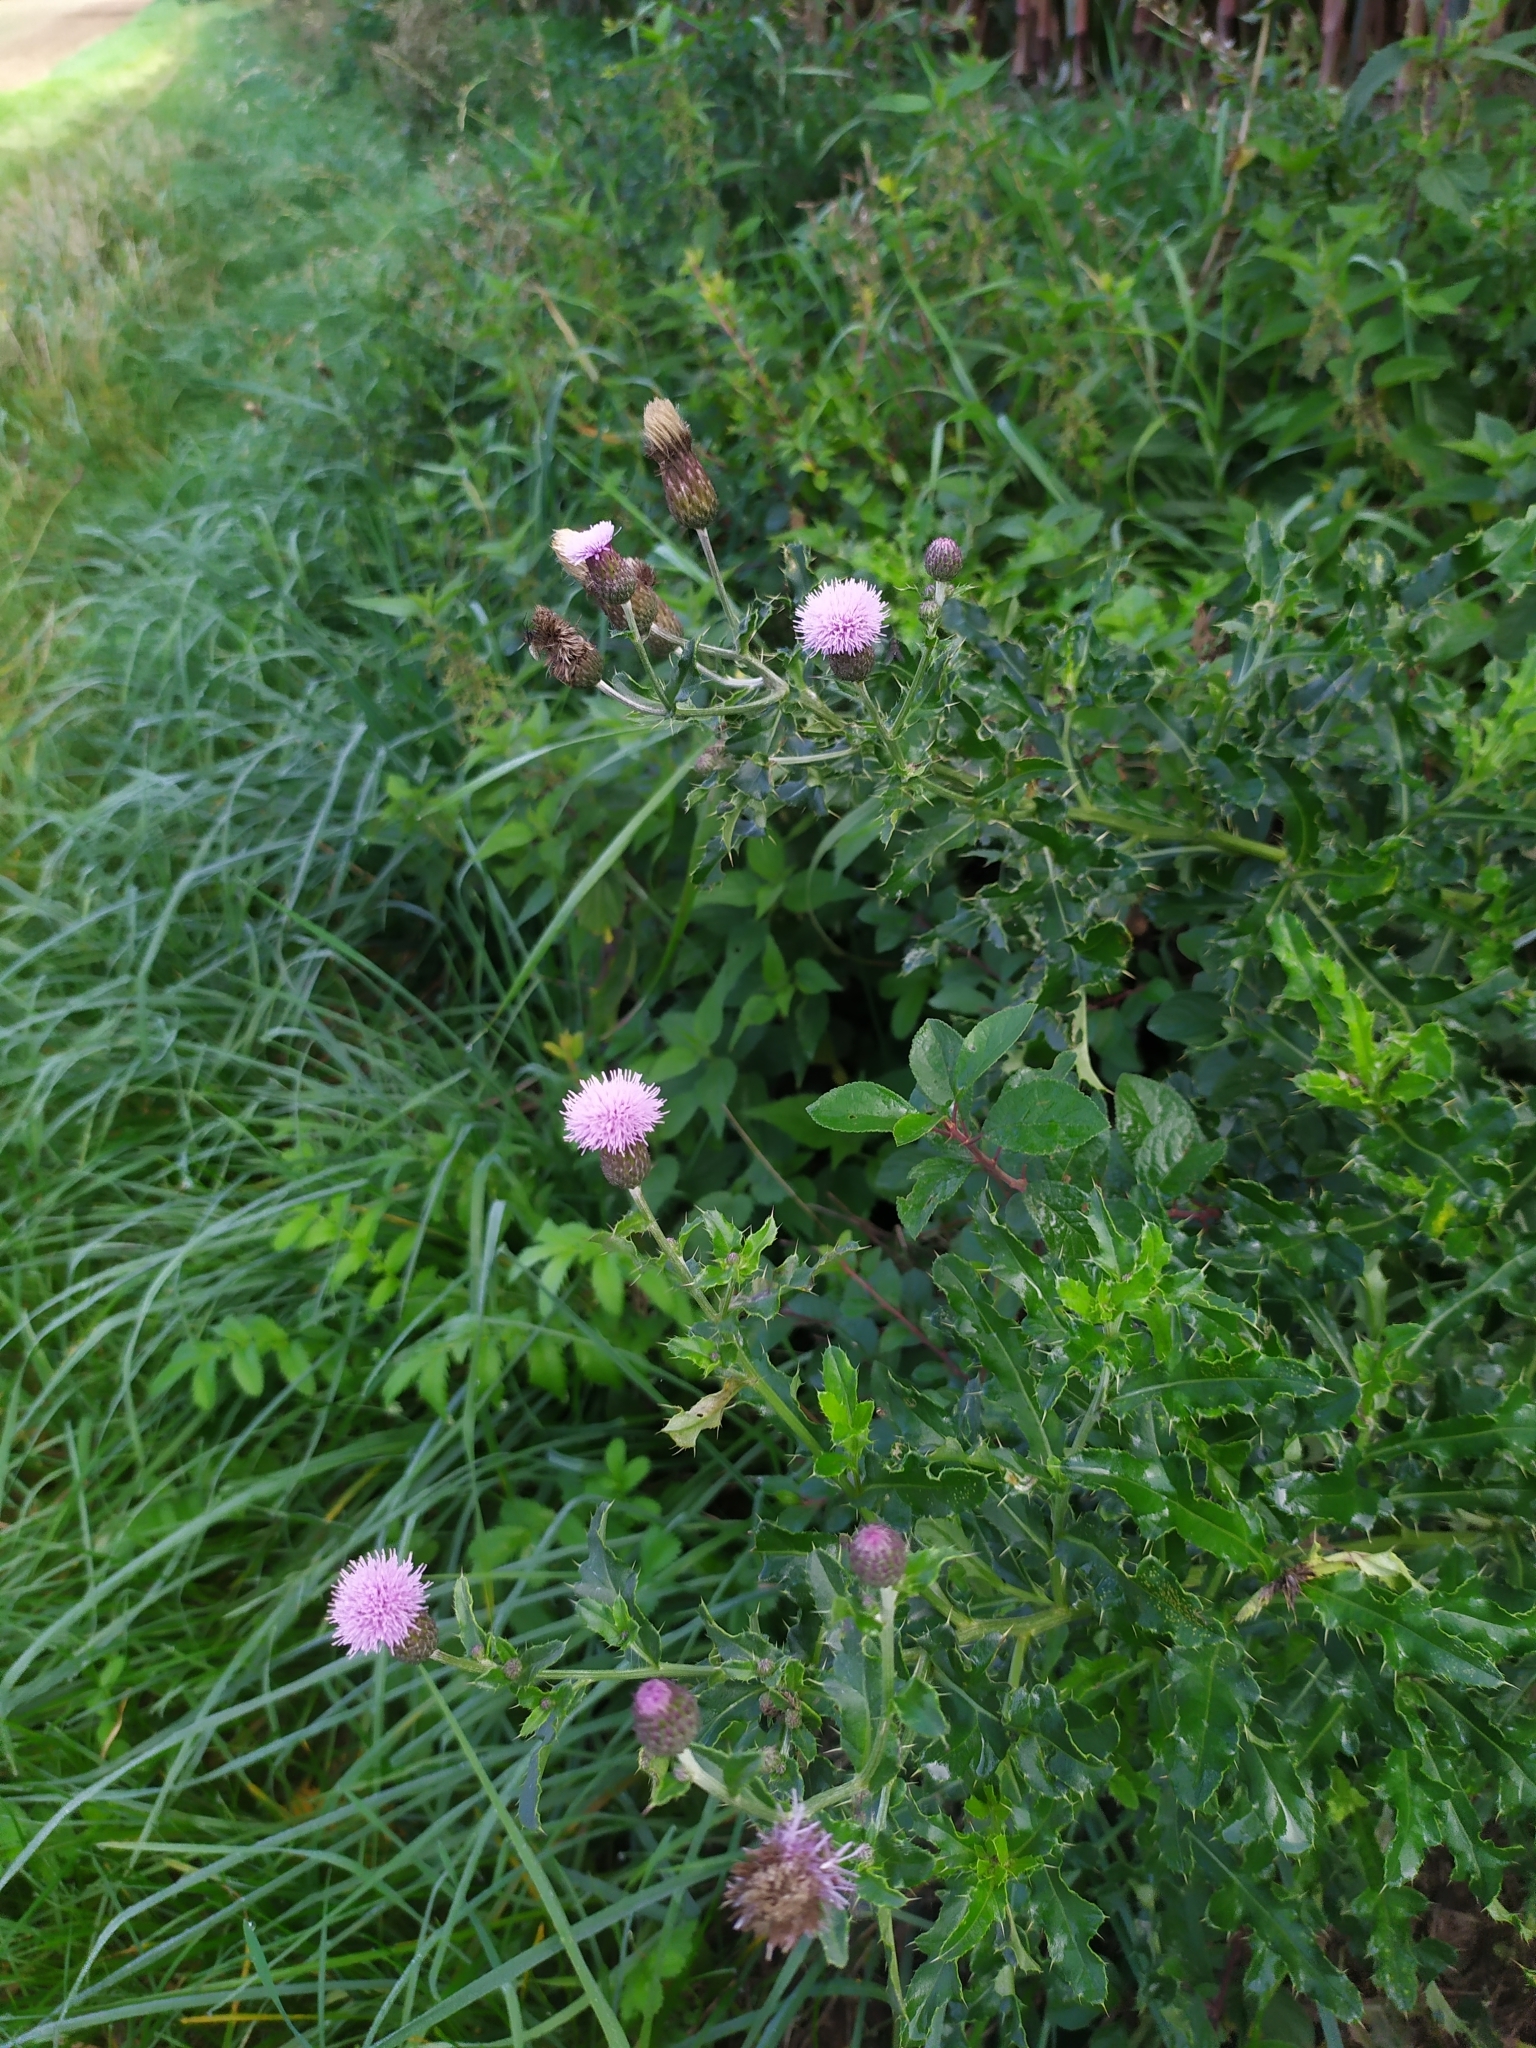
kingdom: Plantae
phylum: Tracheophyta
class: Magnoliopsida
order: Asterales
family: Asteraceae
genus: Cirsium
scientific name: Cirsium arvense
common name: Creeping thistle
